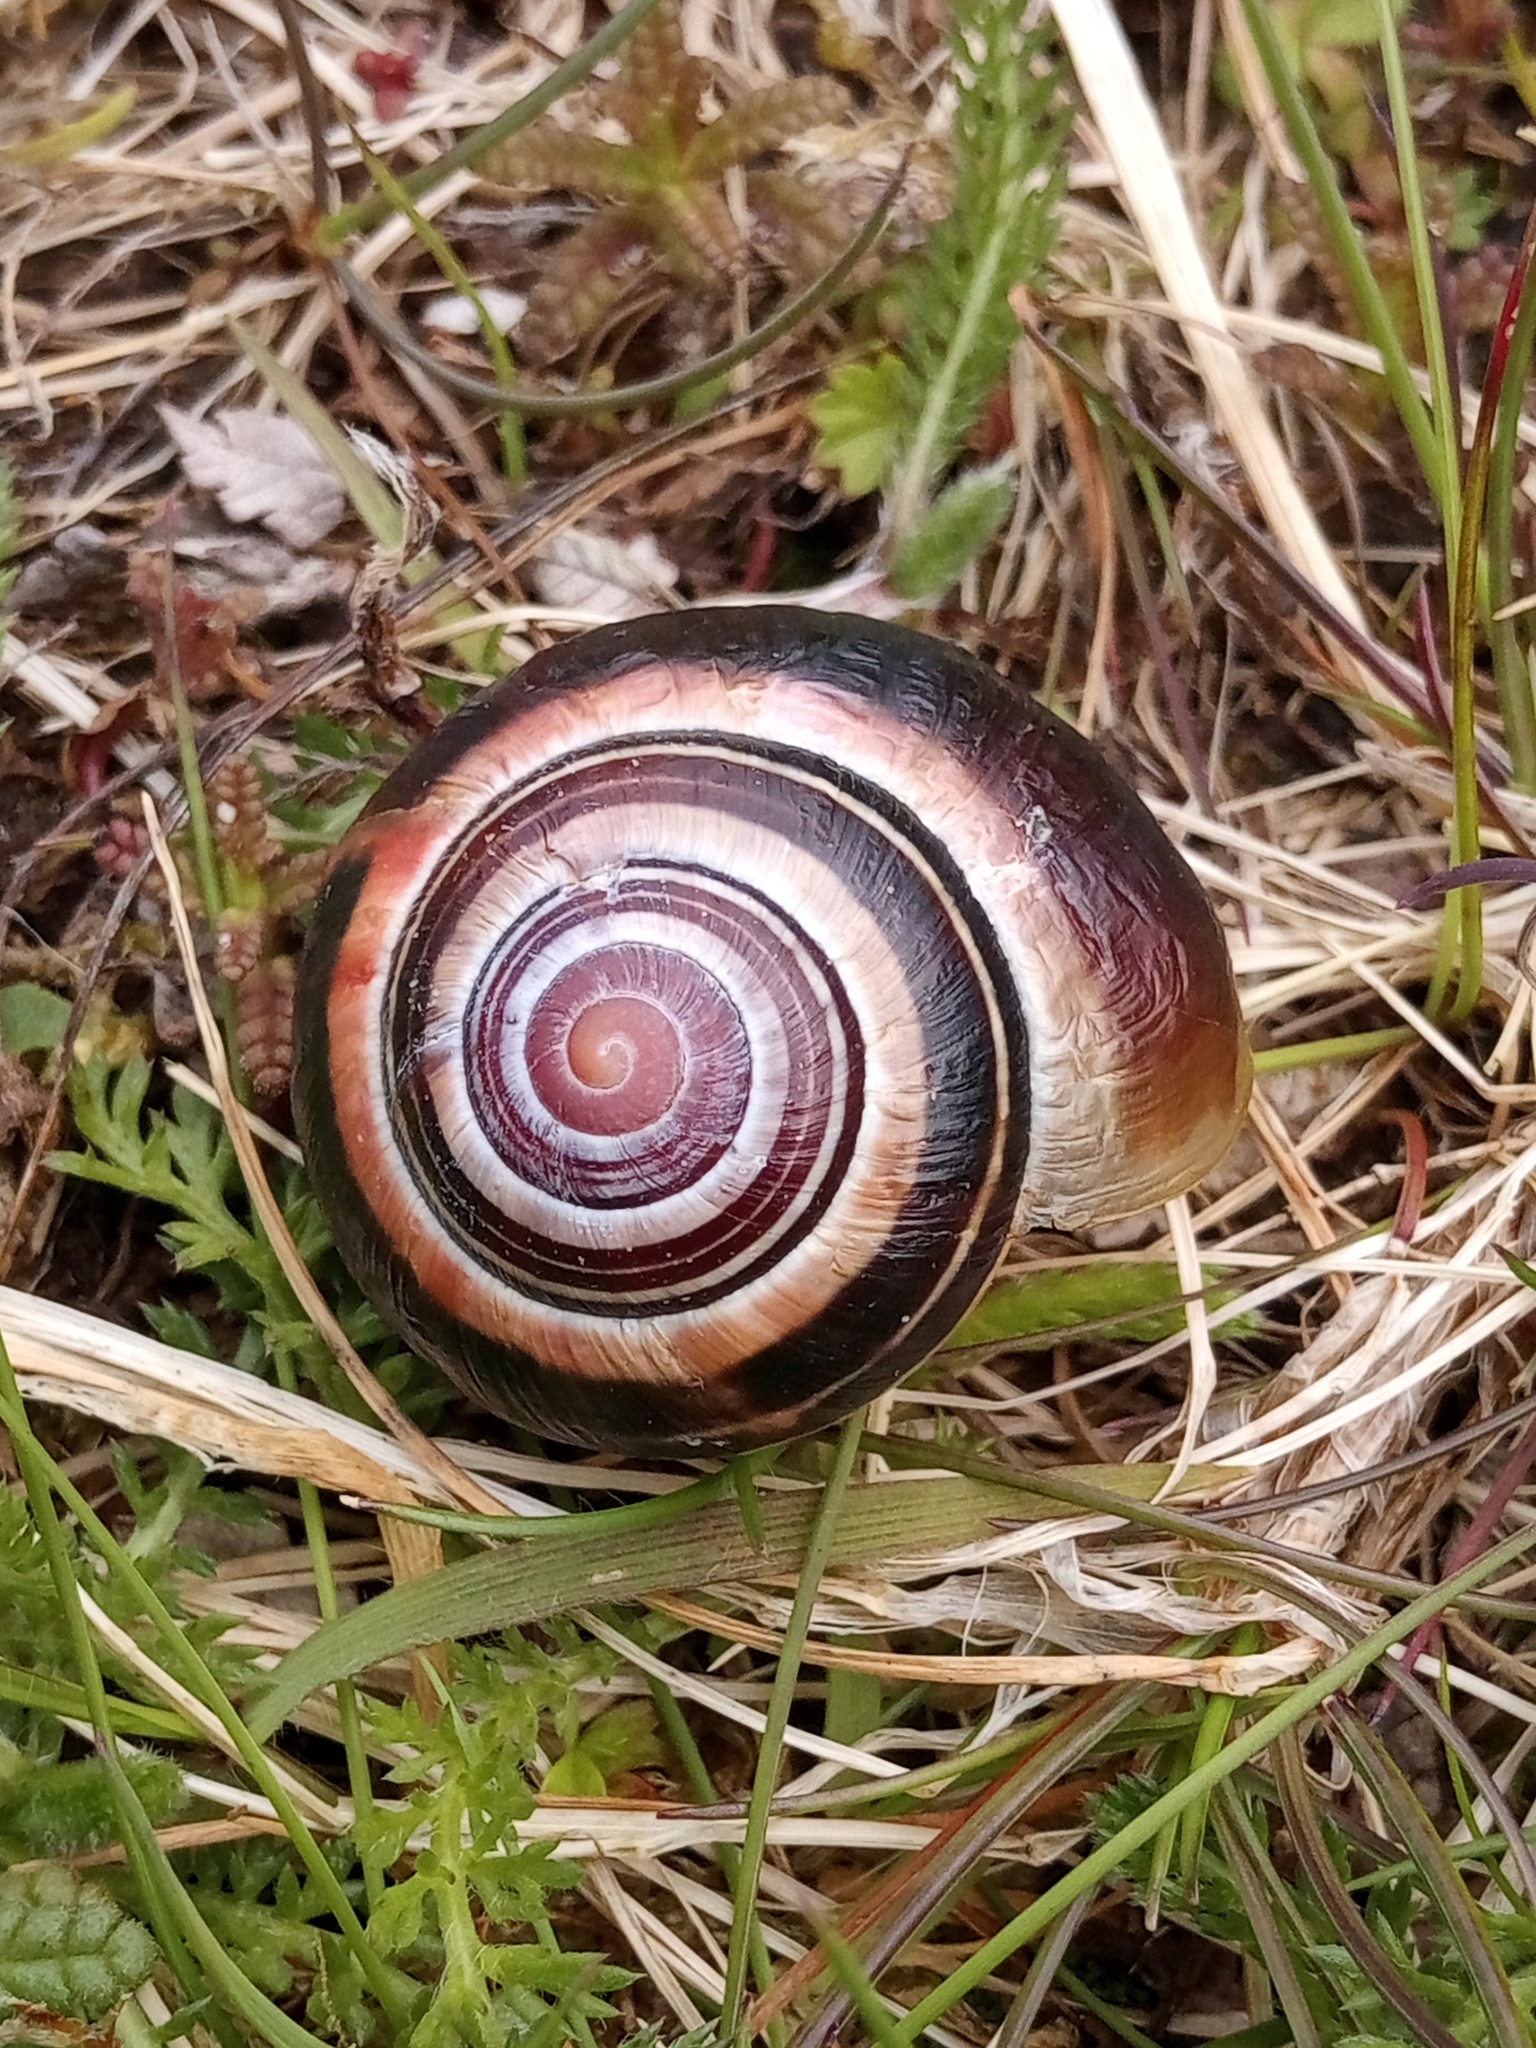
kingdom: Animalia
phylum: Mollusca
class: Gastropoda
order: Stylommatophora
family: Helicidae
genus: Cepaea
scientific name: Cepaea nemoralis
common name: Grovesnail
